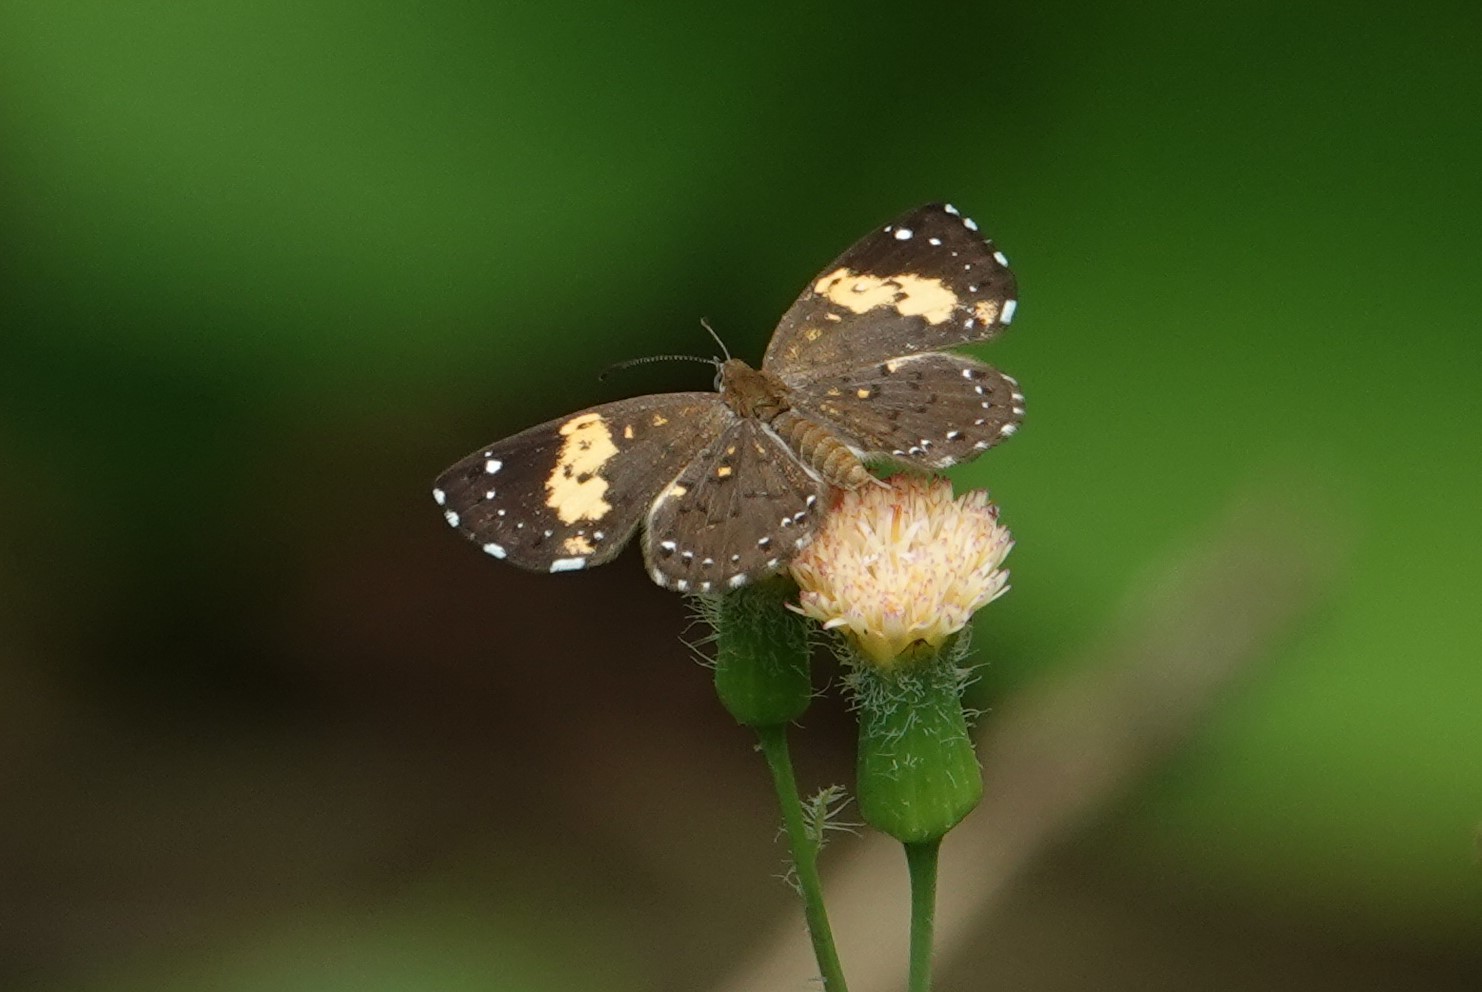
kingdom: Animalia
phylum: Arthropoda
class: Insecta
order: Lepidoptera
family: Riodinidae
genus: Polystichtis
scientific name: Polystichtis emylius
